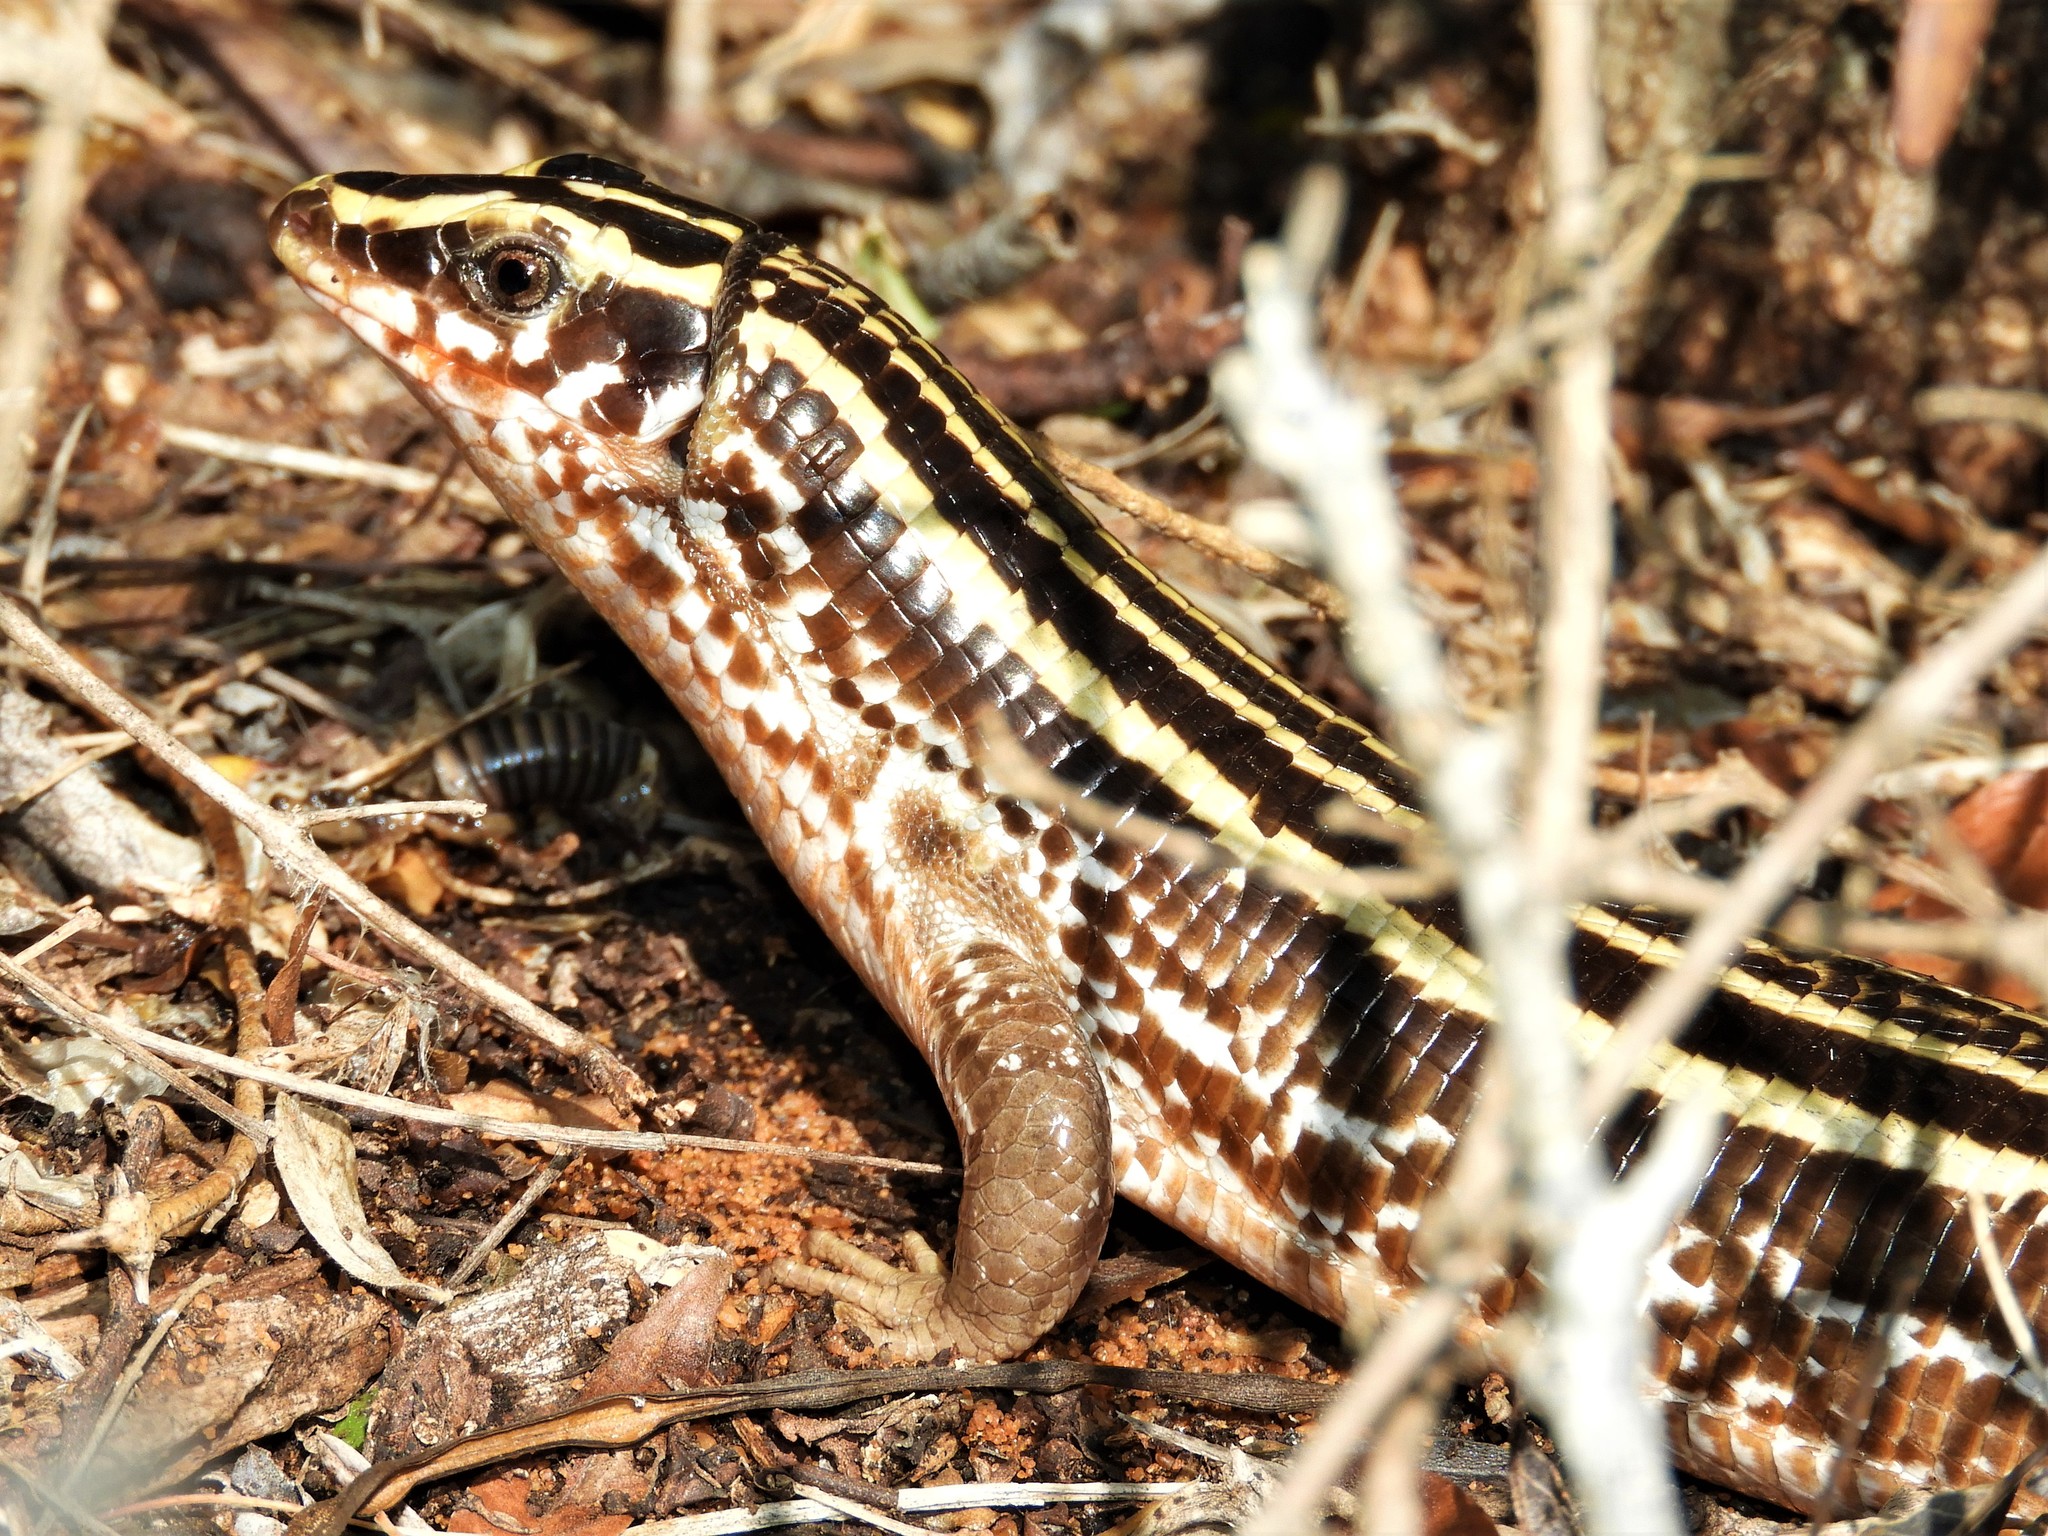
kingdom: Animalia
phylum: Chordata
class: Squamata
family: Gerrhosauridae
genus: Zonosaurus
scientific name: Zonosaurus quadrilineatus
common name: Four-lined girdled lizard
